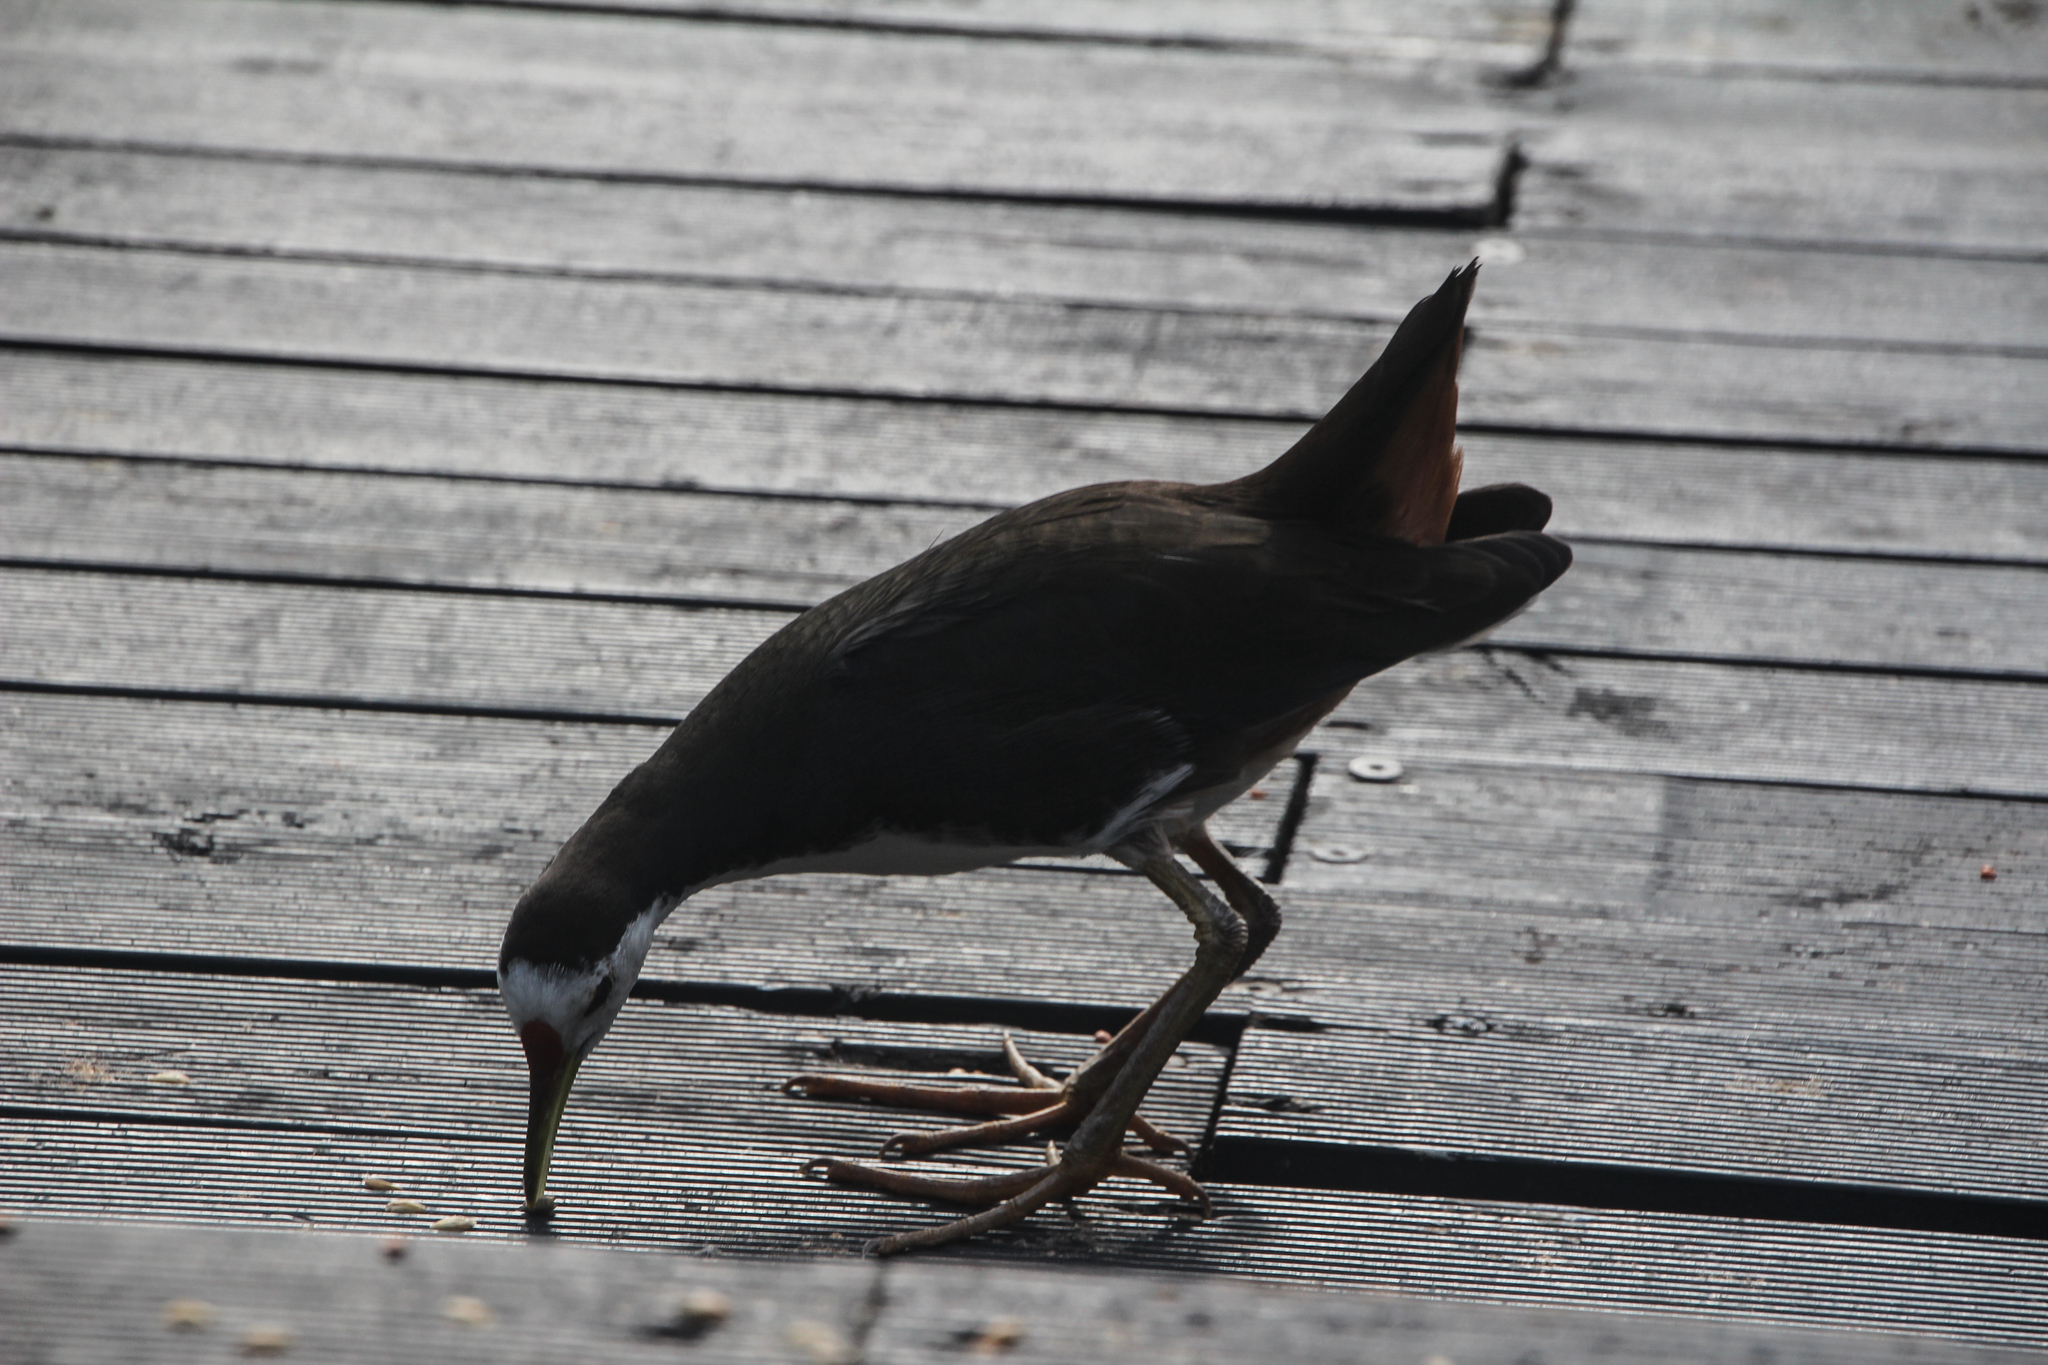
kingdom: Animalia
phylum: Chordata
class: Aves
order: Gruiformes
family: Rallidae
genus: Amaurornis
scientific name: Amaurornis phoenicurus
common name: White-breasted waterhen
